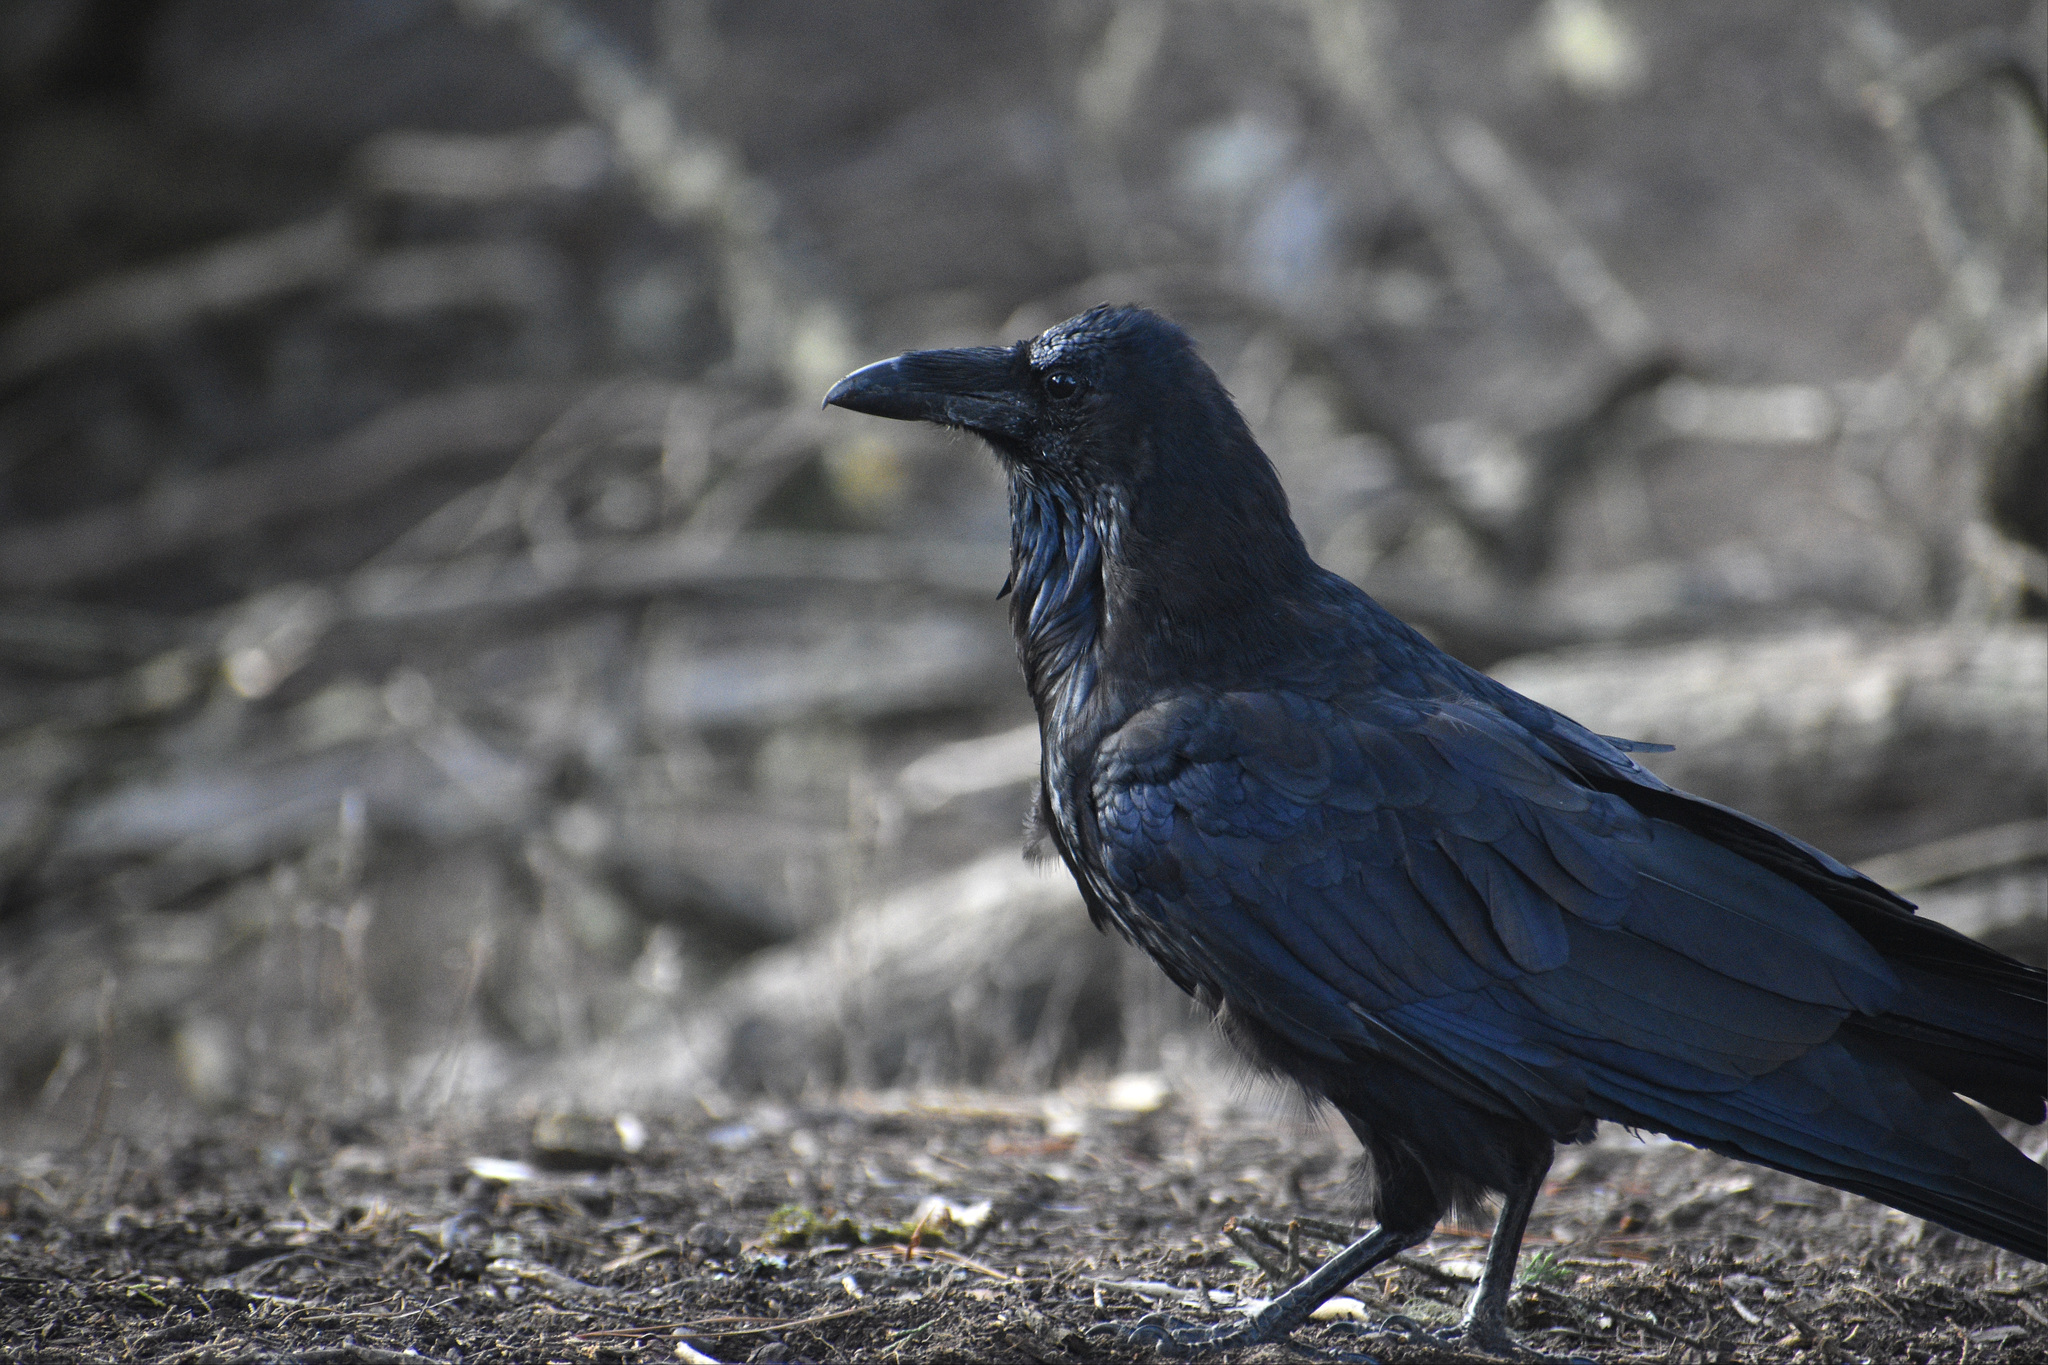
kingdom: Animalia
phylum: Chordata
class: Aves
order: Passeriformes
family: Corvidae
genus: Corvus
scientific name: Corvus corax
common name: Common raven
